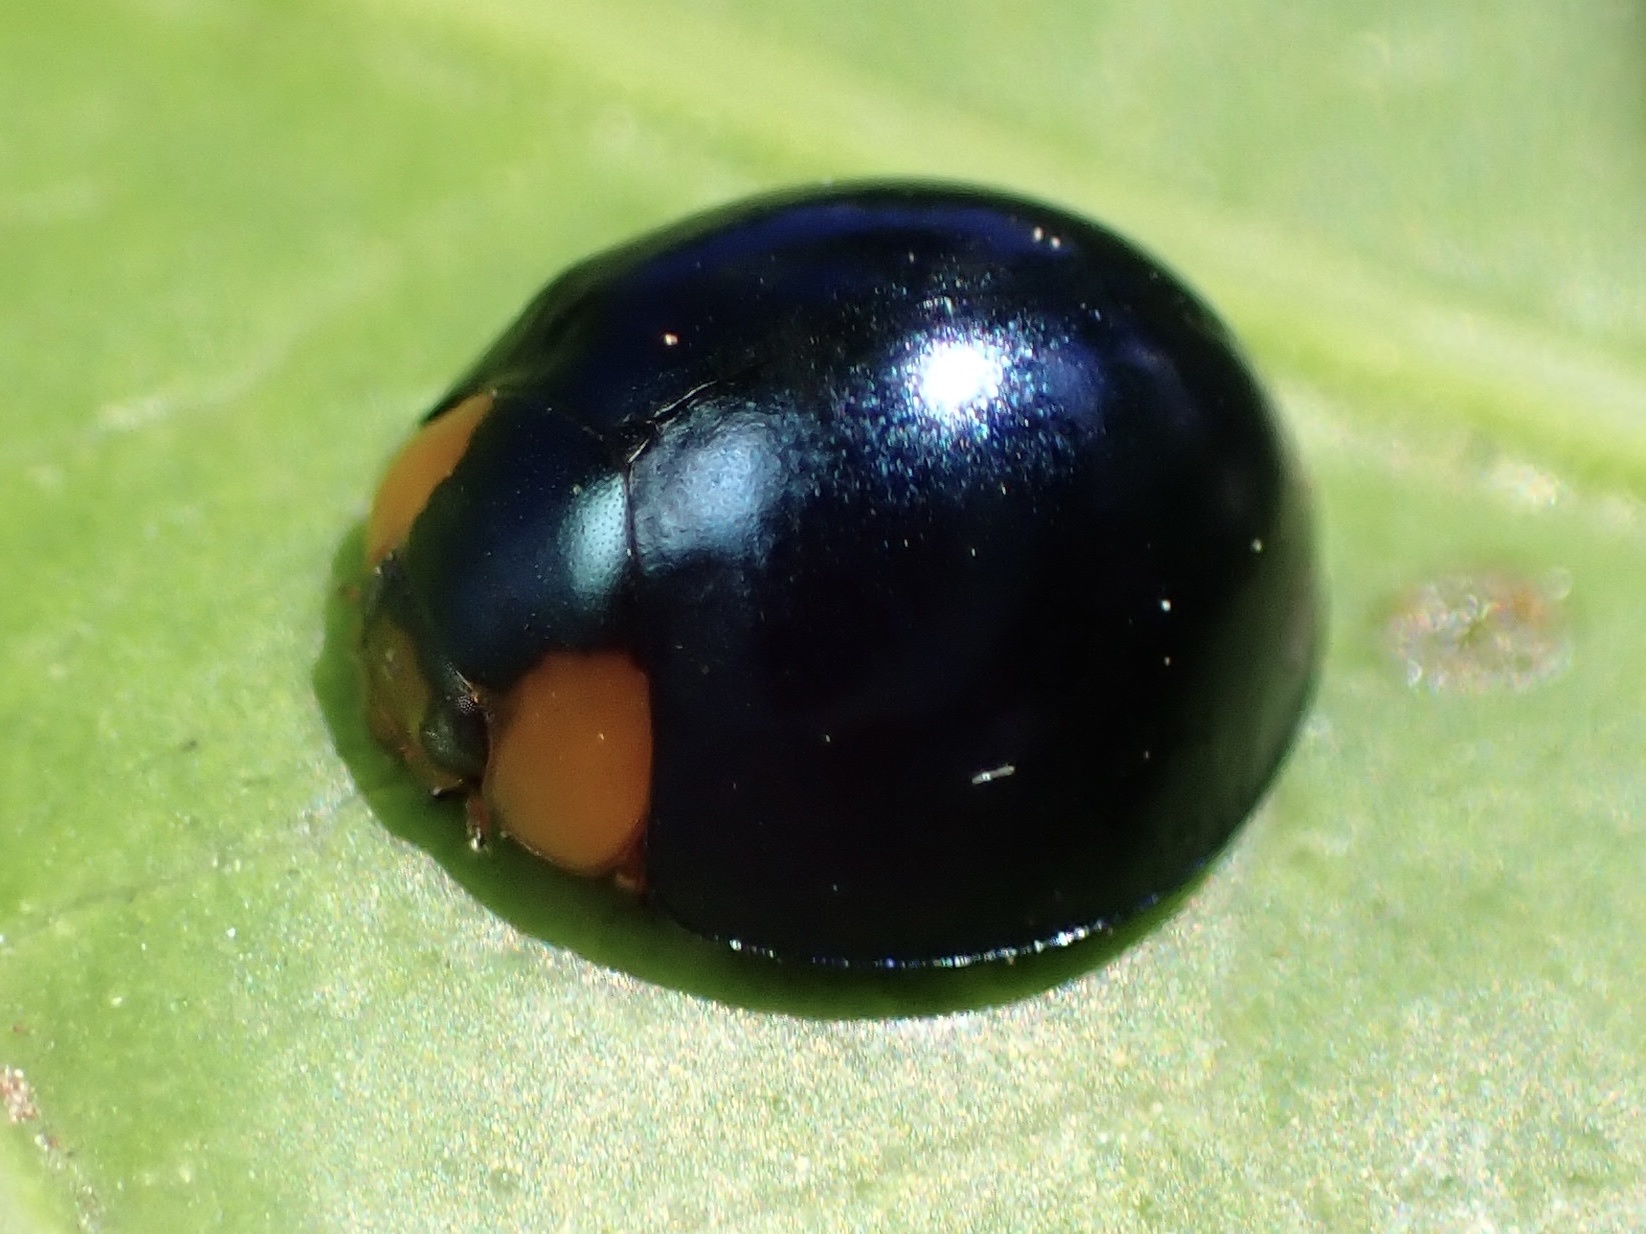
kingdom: Animalia
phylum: Arthropoda
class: Insecta
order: Coleoptera
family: Coccinellidae
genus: Curinus
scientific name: Curinus coeruleus
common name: Ladybird beetle
